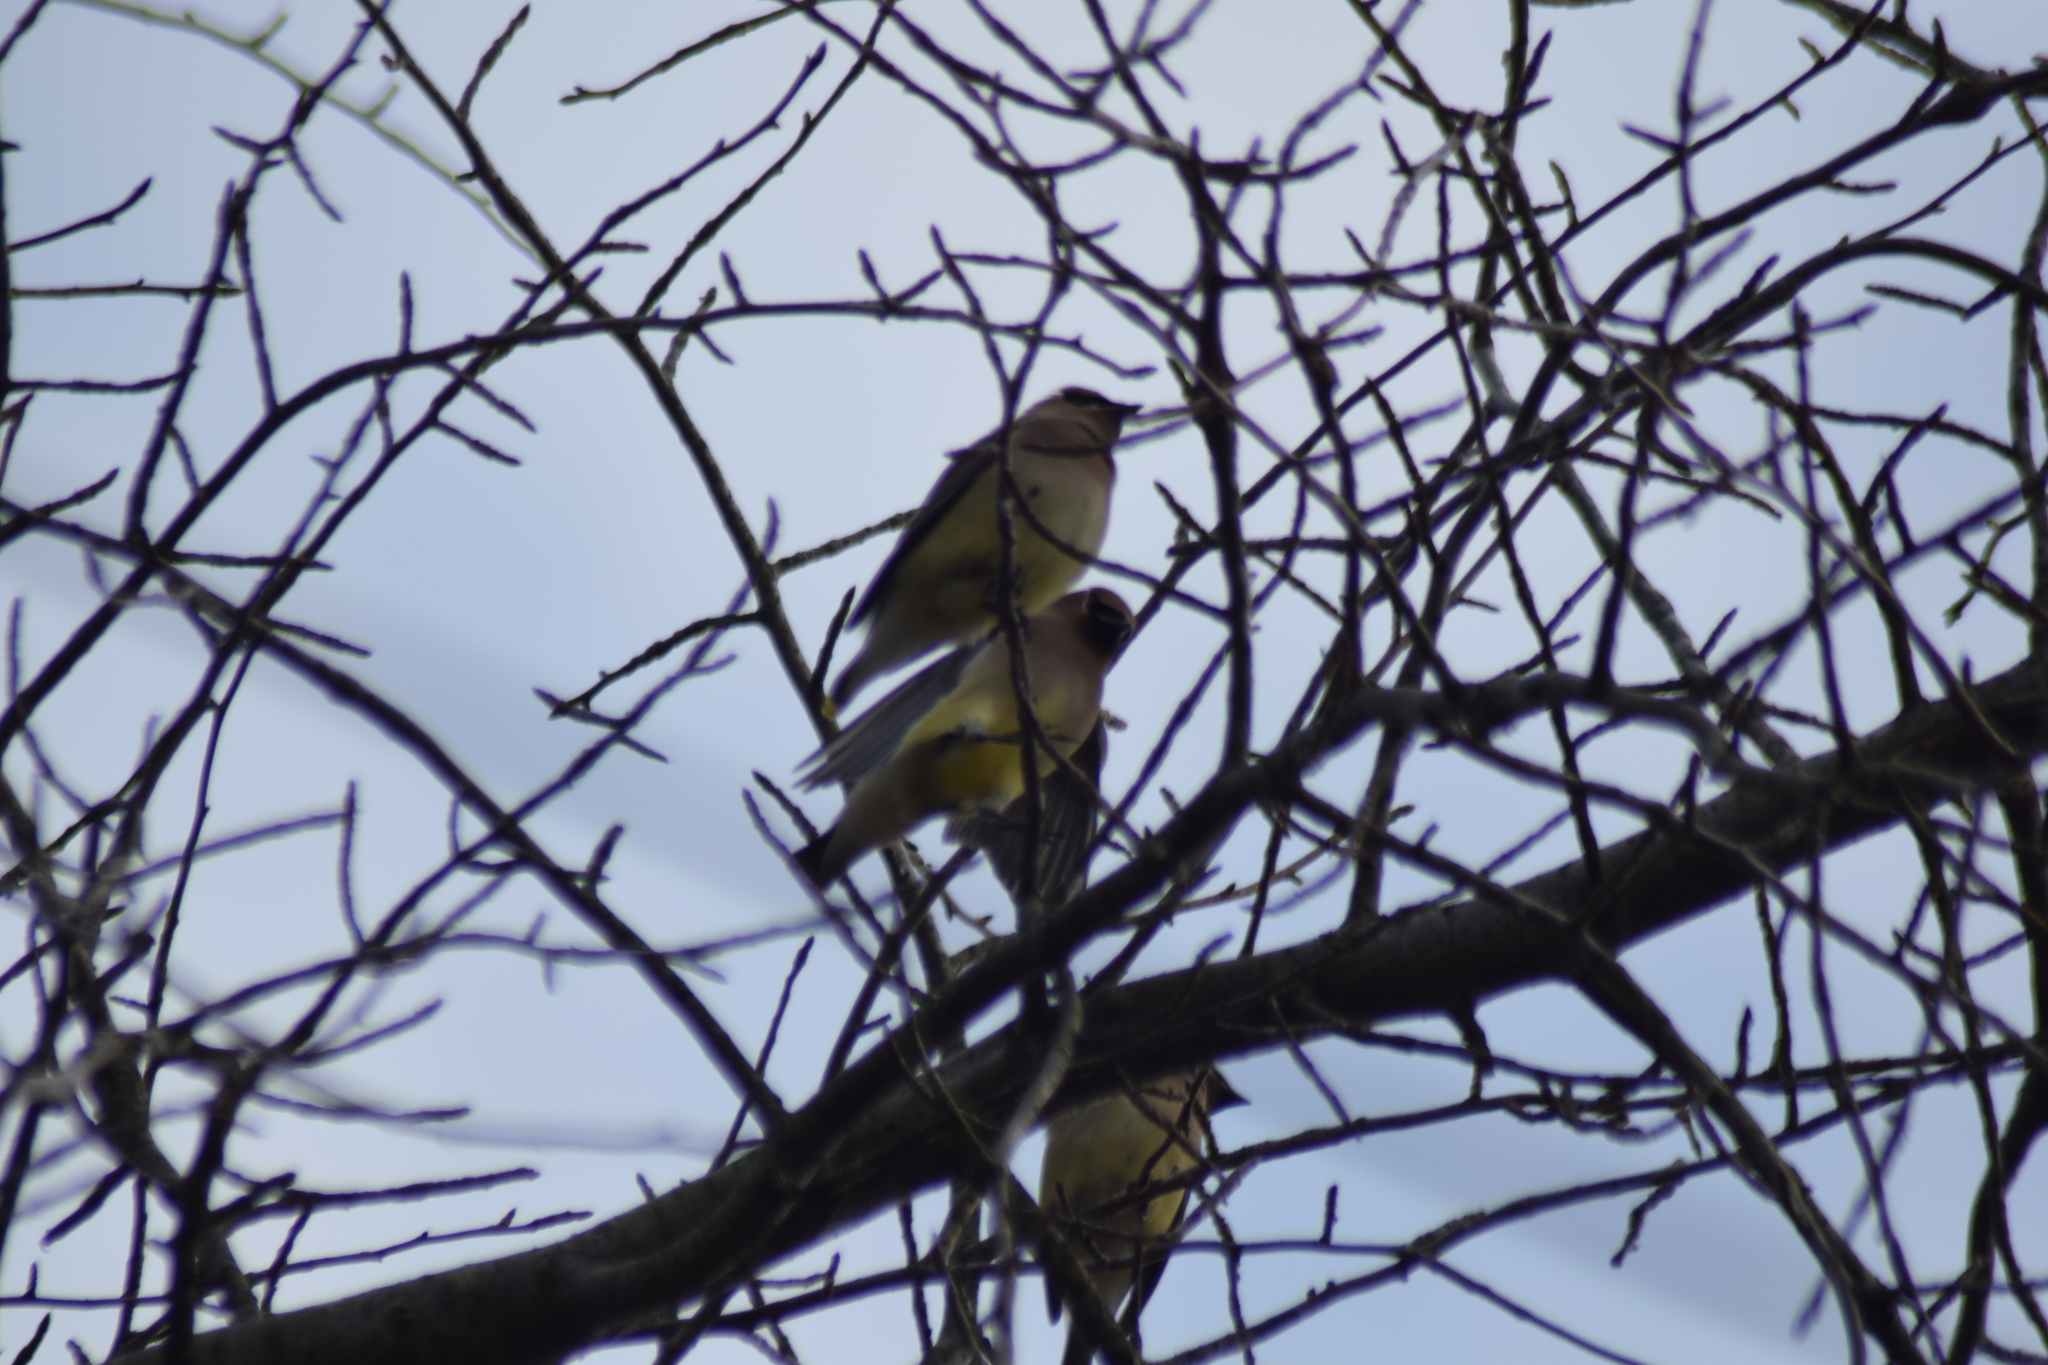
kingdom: Animalia
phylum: Chordata
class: Aves
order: Passeriformes
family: Bombycillidae
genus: Bombycilla
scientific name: Bombycilla cedrorum
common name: Cedar waxwing
